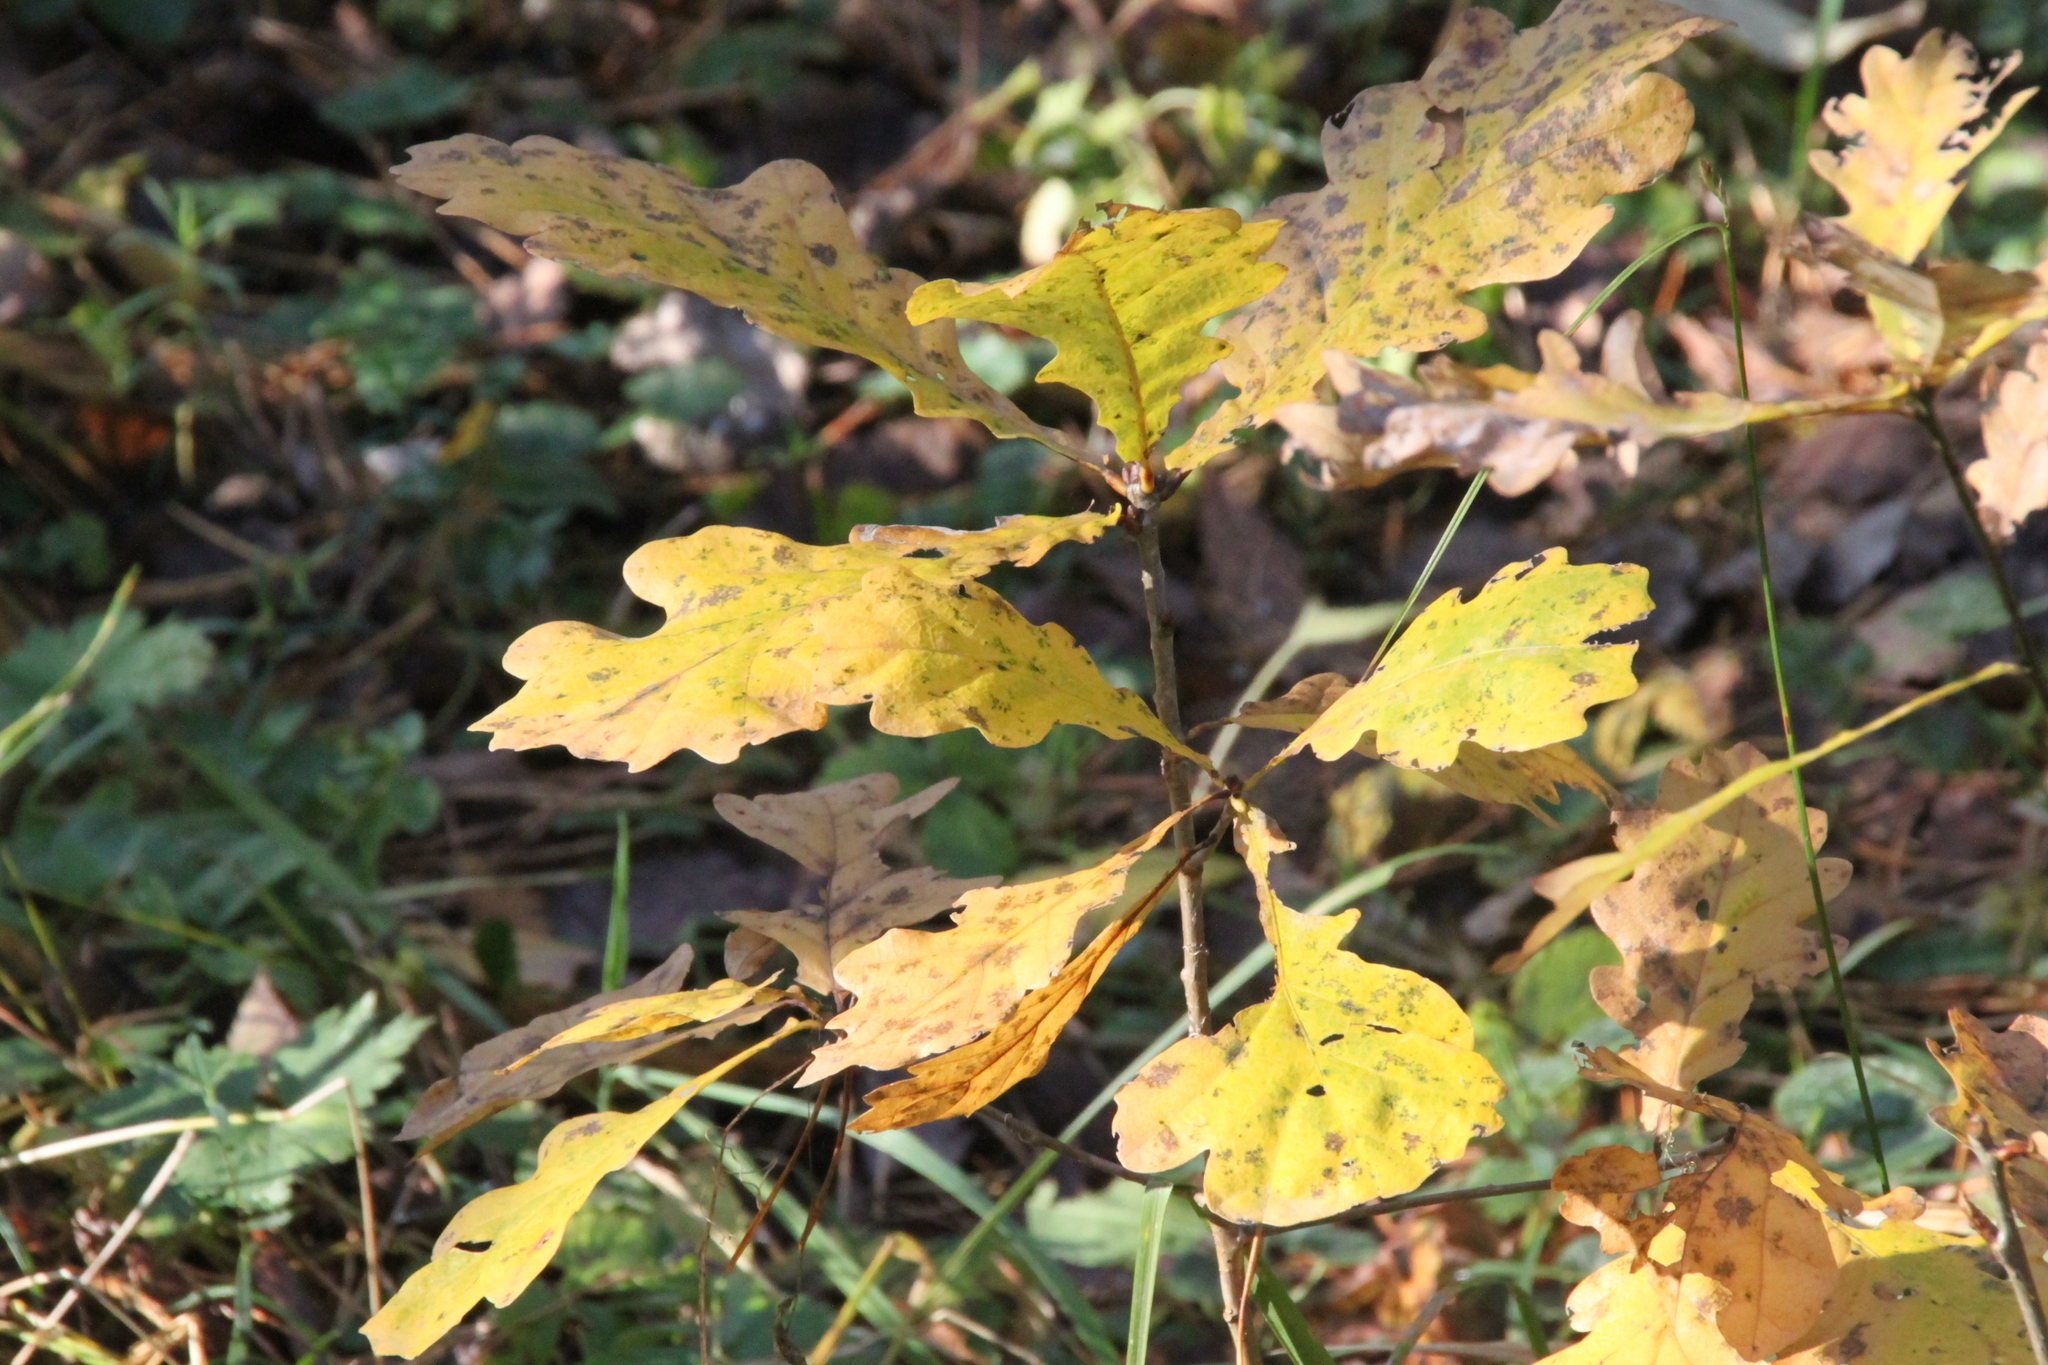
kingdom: Plantae
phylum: Tracheophyta
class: Magnoliopsida
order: Fagales
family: Fagaceae
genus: Quercus
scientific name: Quercus robur
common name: Pedunculate oak
